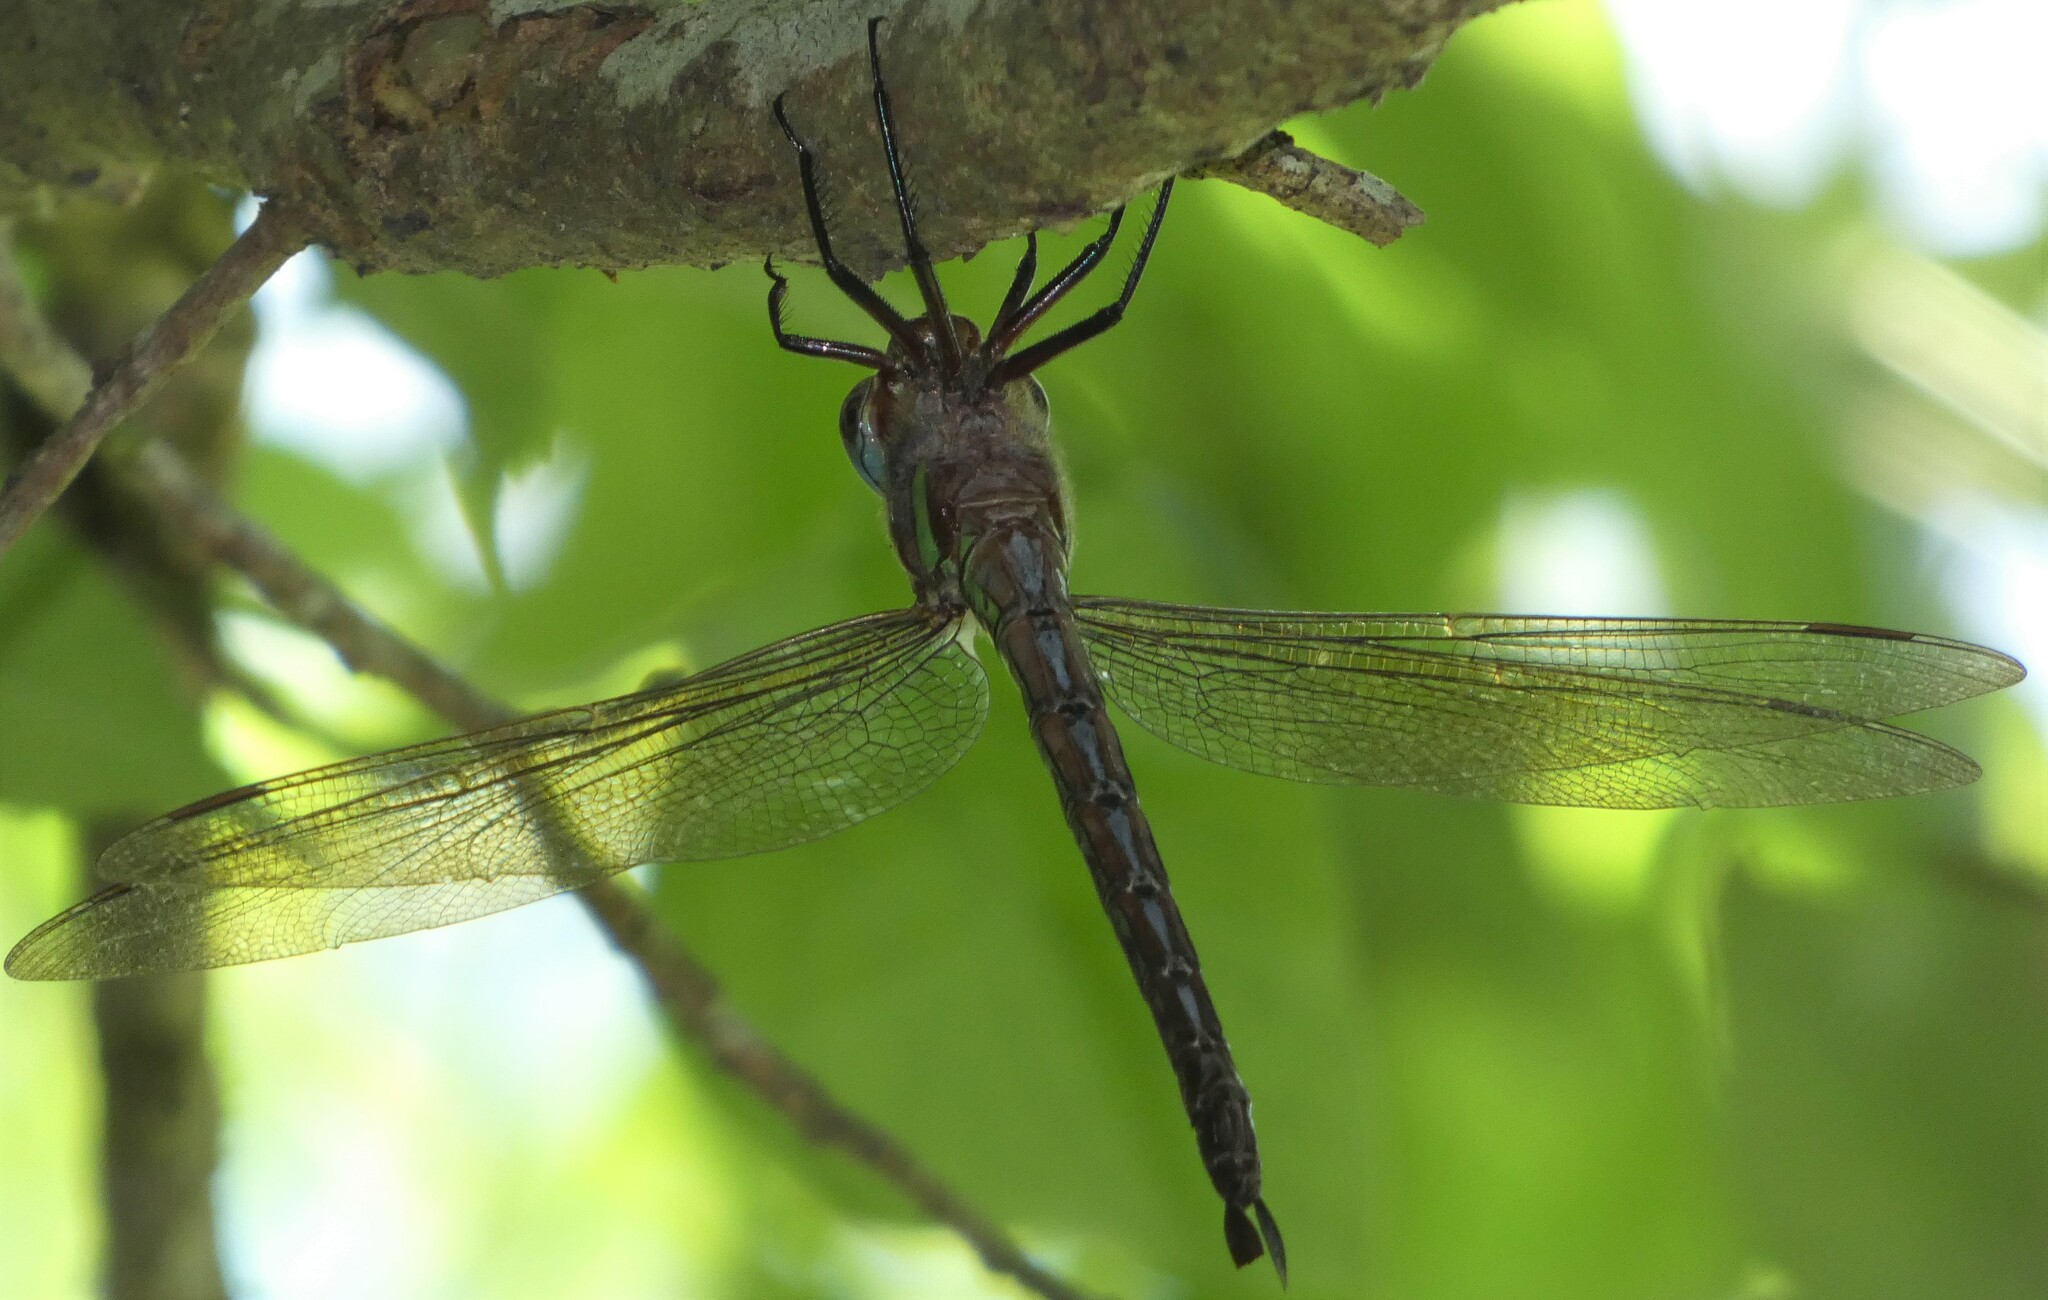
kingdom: Animalia
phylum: Arthropoda
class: Insecta
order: Odonata
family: Aeshnidae
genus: Epiaeschna
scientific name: Epiaeschna heros
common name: Swamp darner
